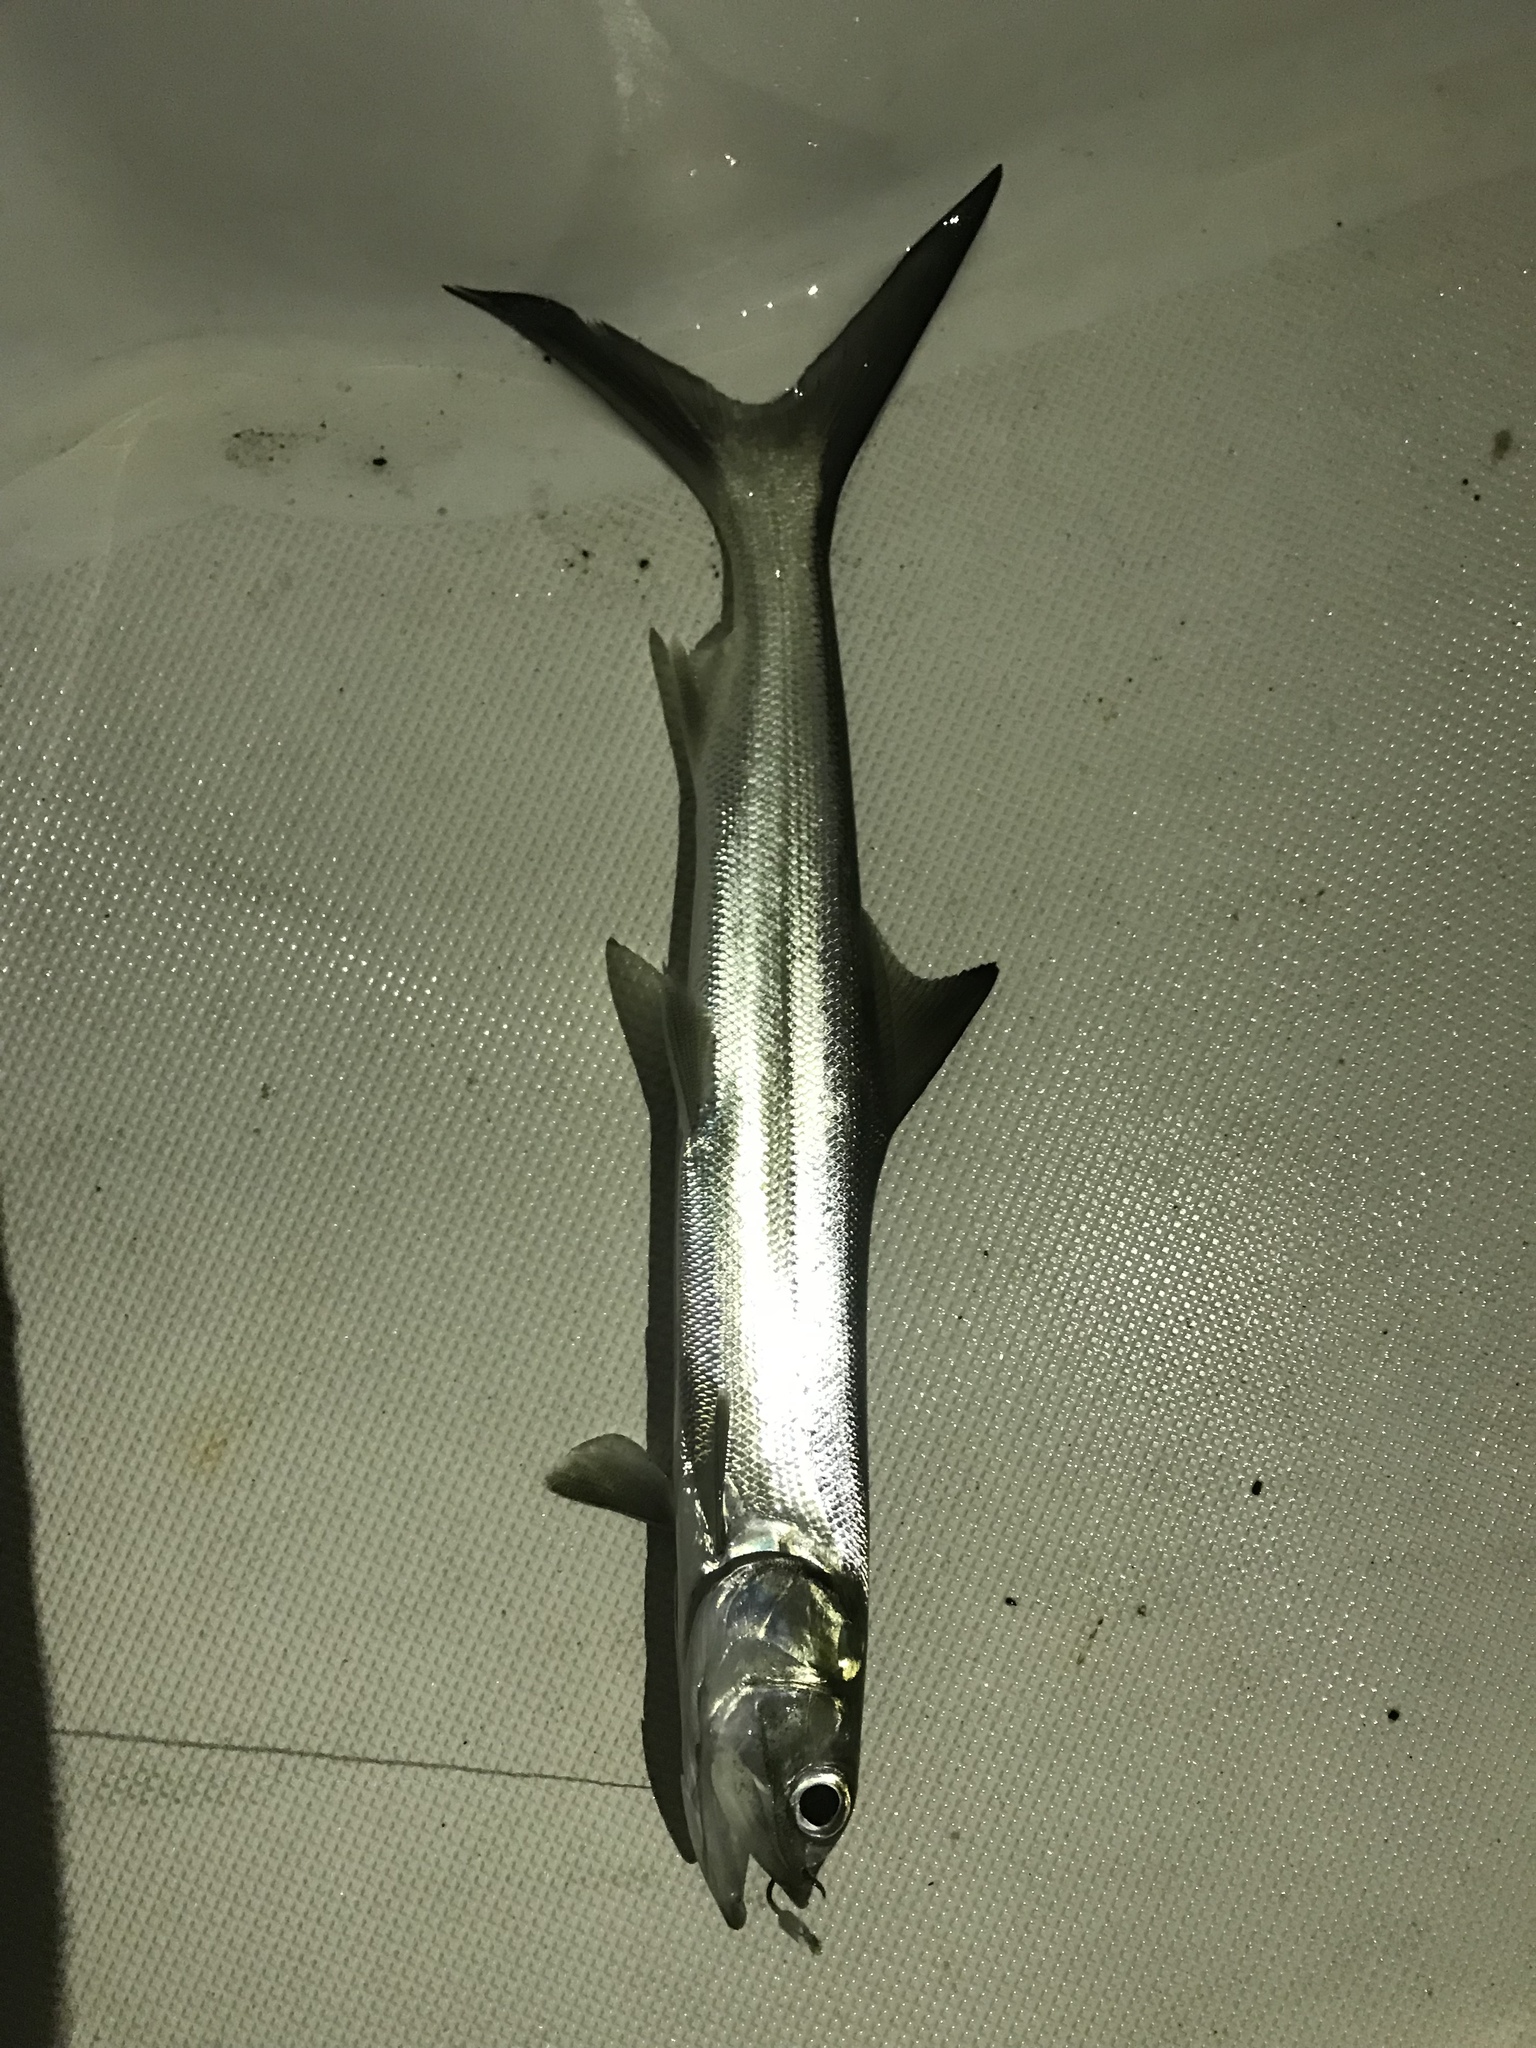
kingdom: Animalia
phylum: Chordata
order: Elopiformes
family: Elopidae
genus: Elops
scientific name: Elops saurus
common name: Ladyfish
